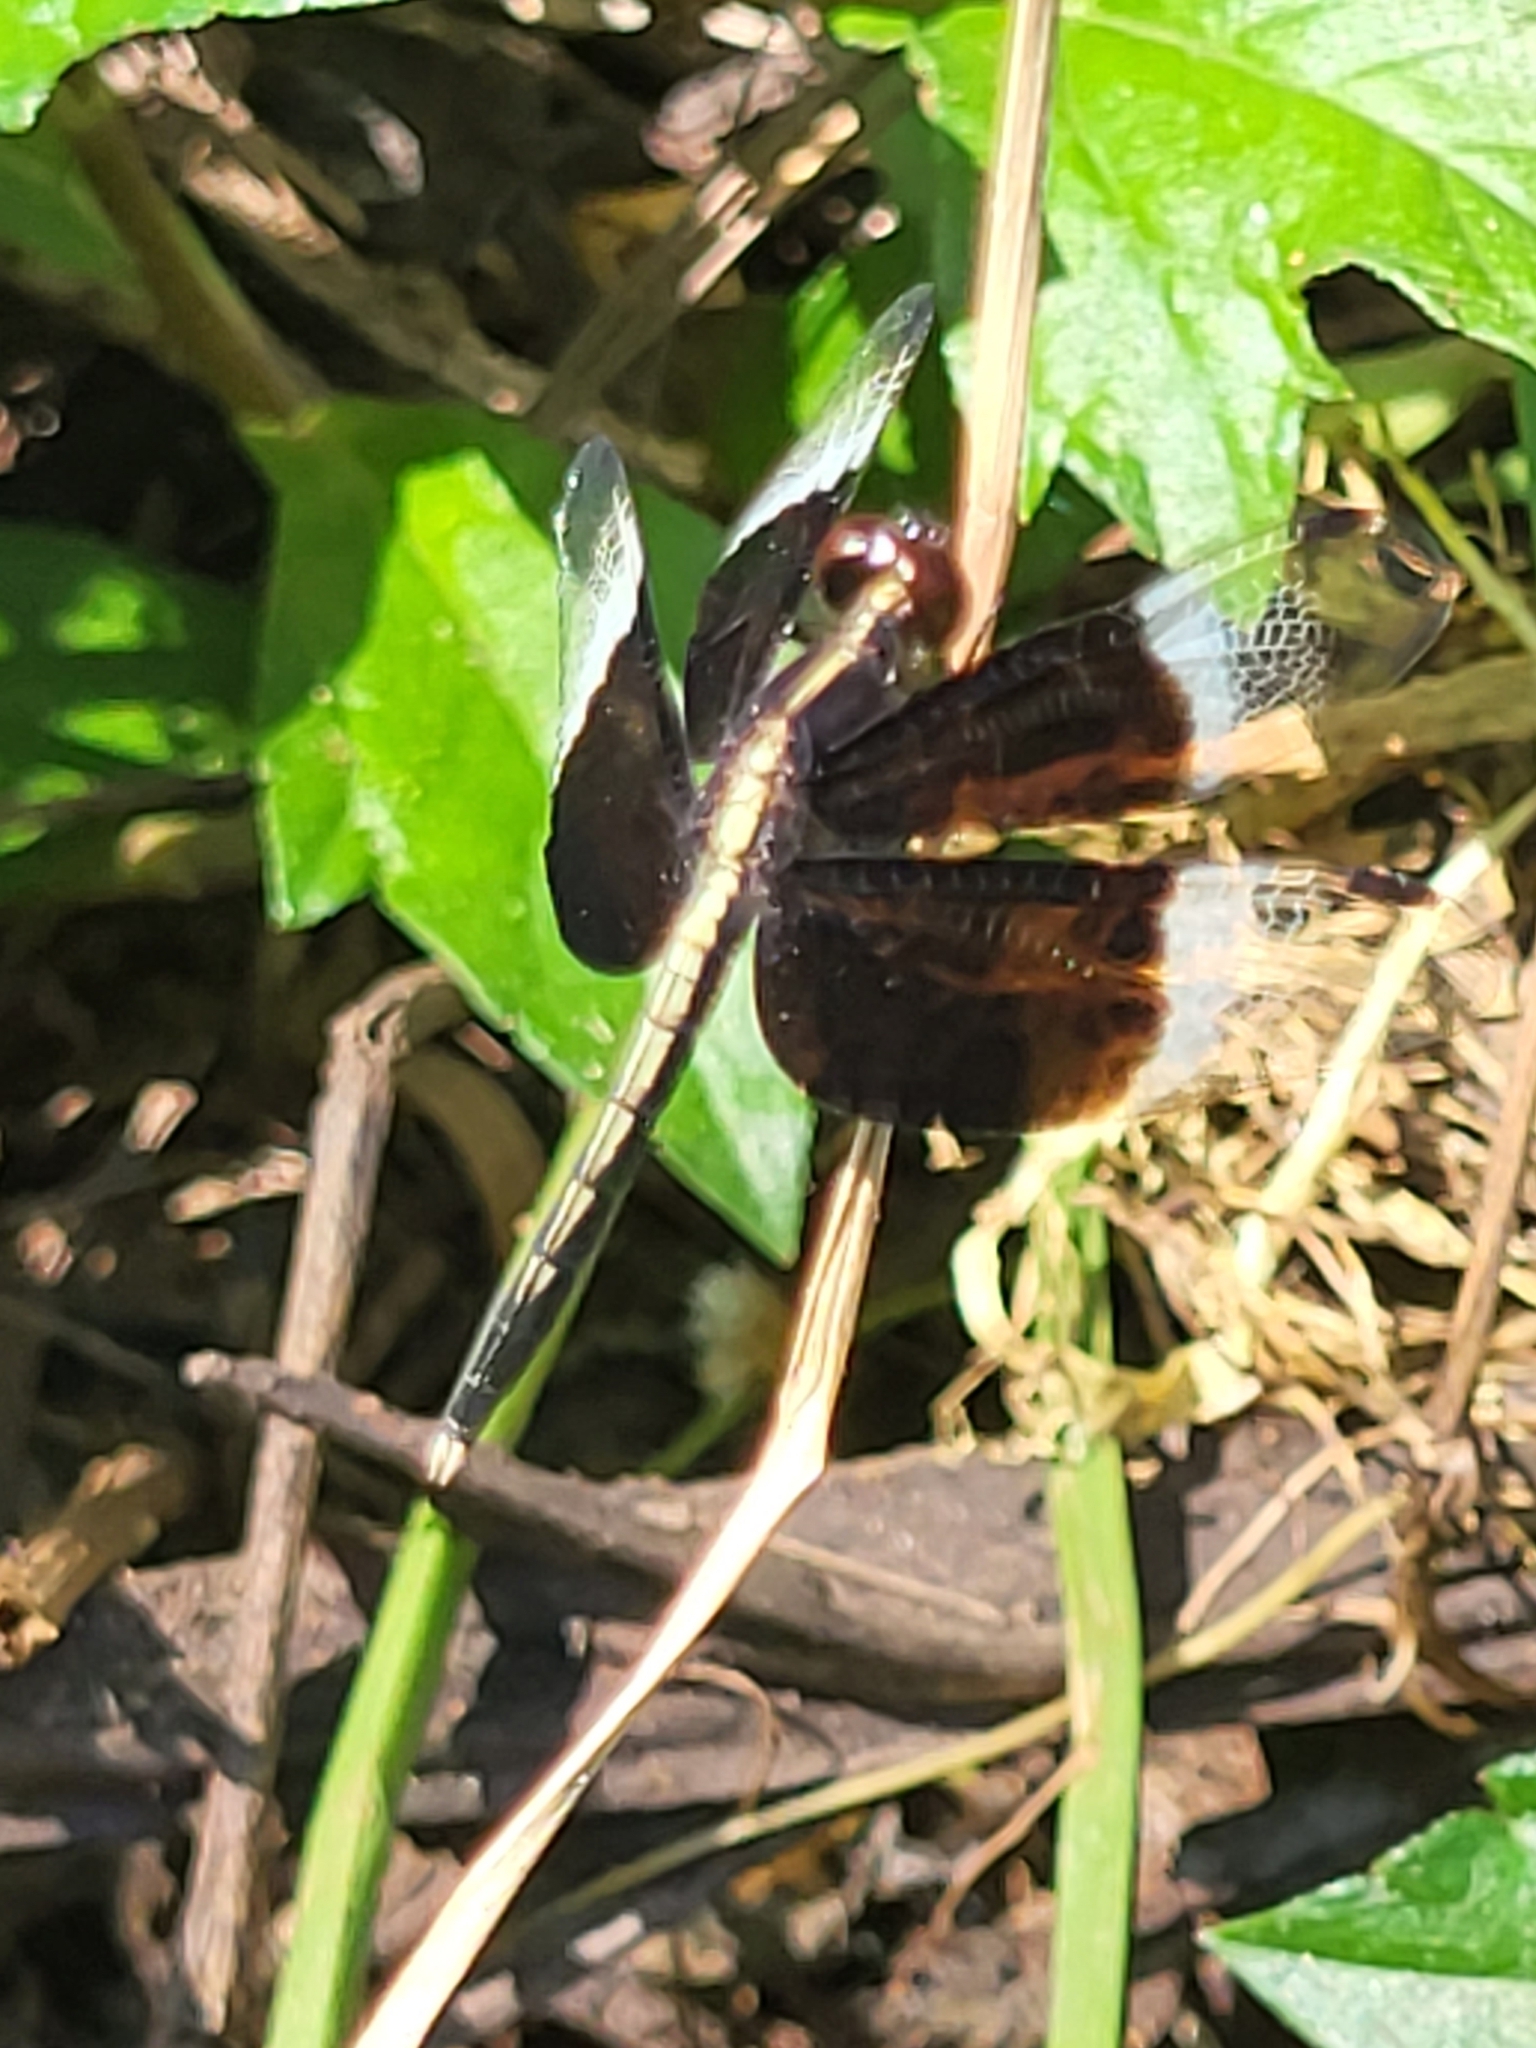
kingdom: Animalia
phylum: Arthropoda
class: Insecta
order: Odonata
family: Libellulidae
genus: Neurothemis
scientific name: Neurothemis tullia
